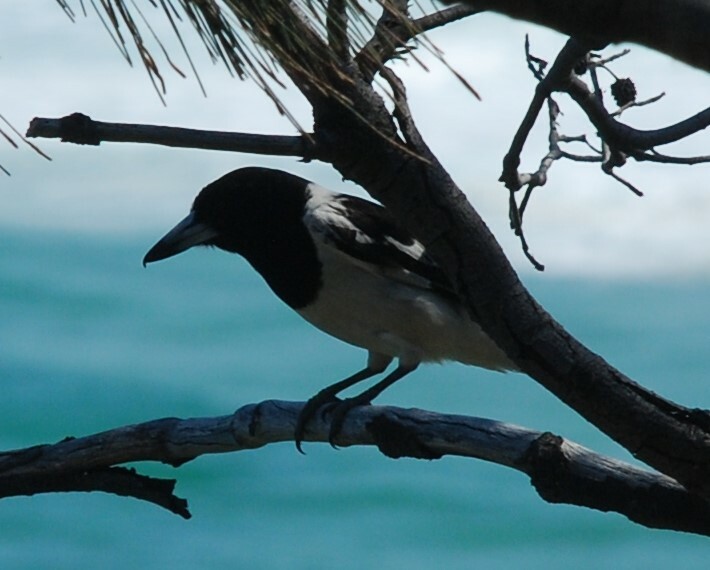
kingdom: Animalia
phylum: Chordata
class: Aves
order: Passeriformes
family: Cracticidae
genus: Cracticus
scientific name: Cracticus nigrogularis
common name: Pied butcherbird
